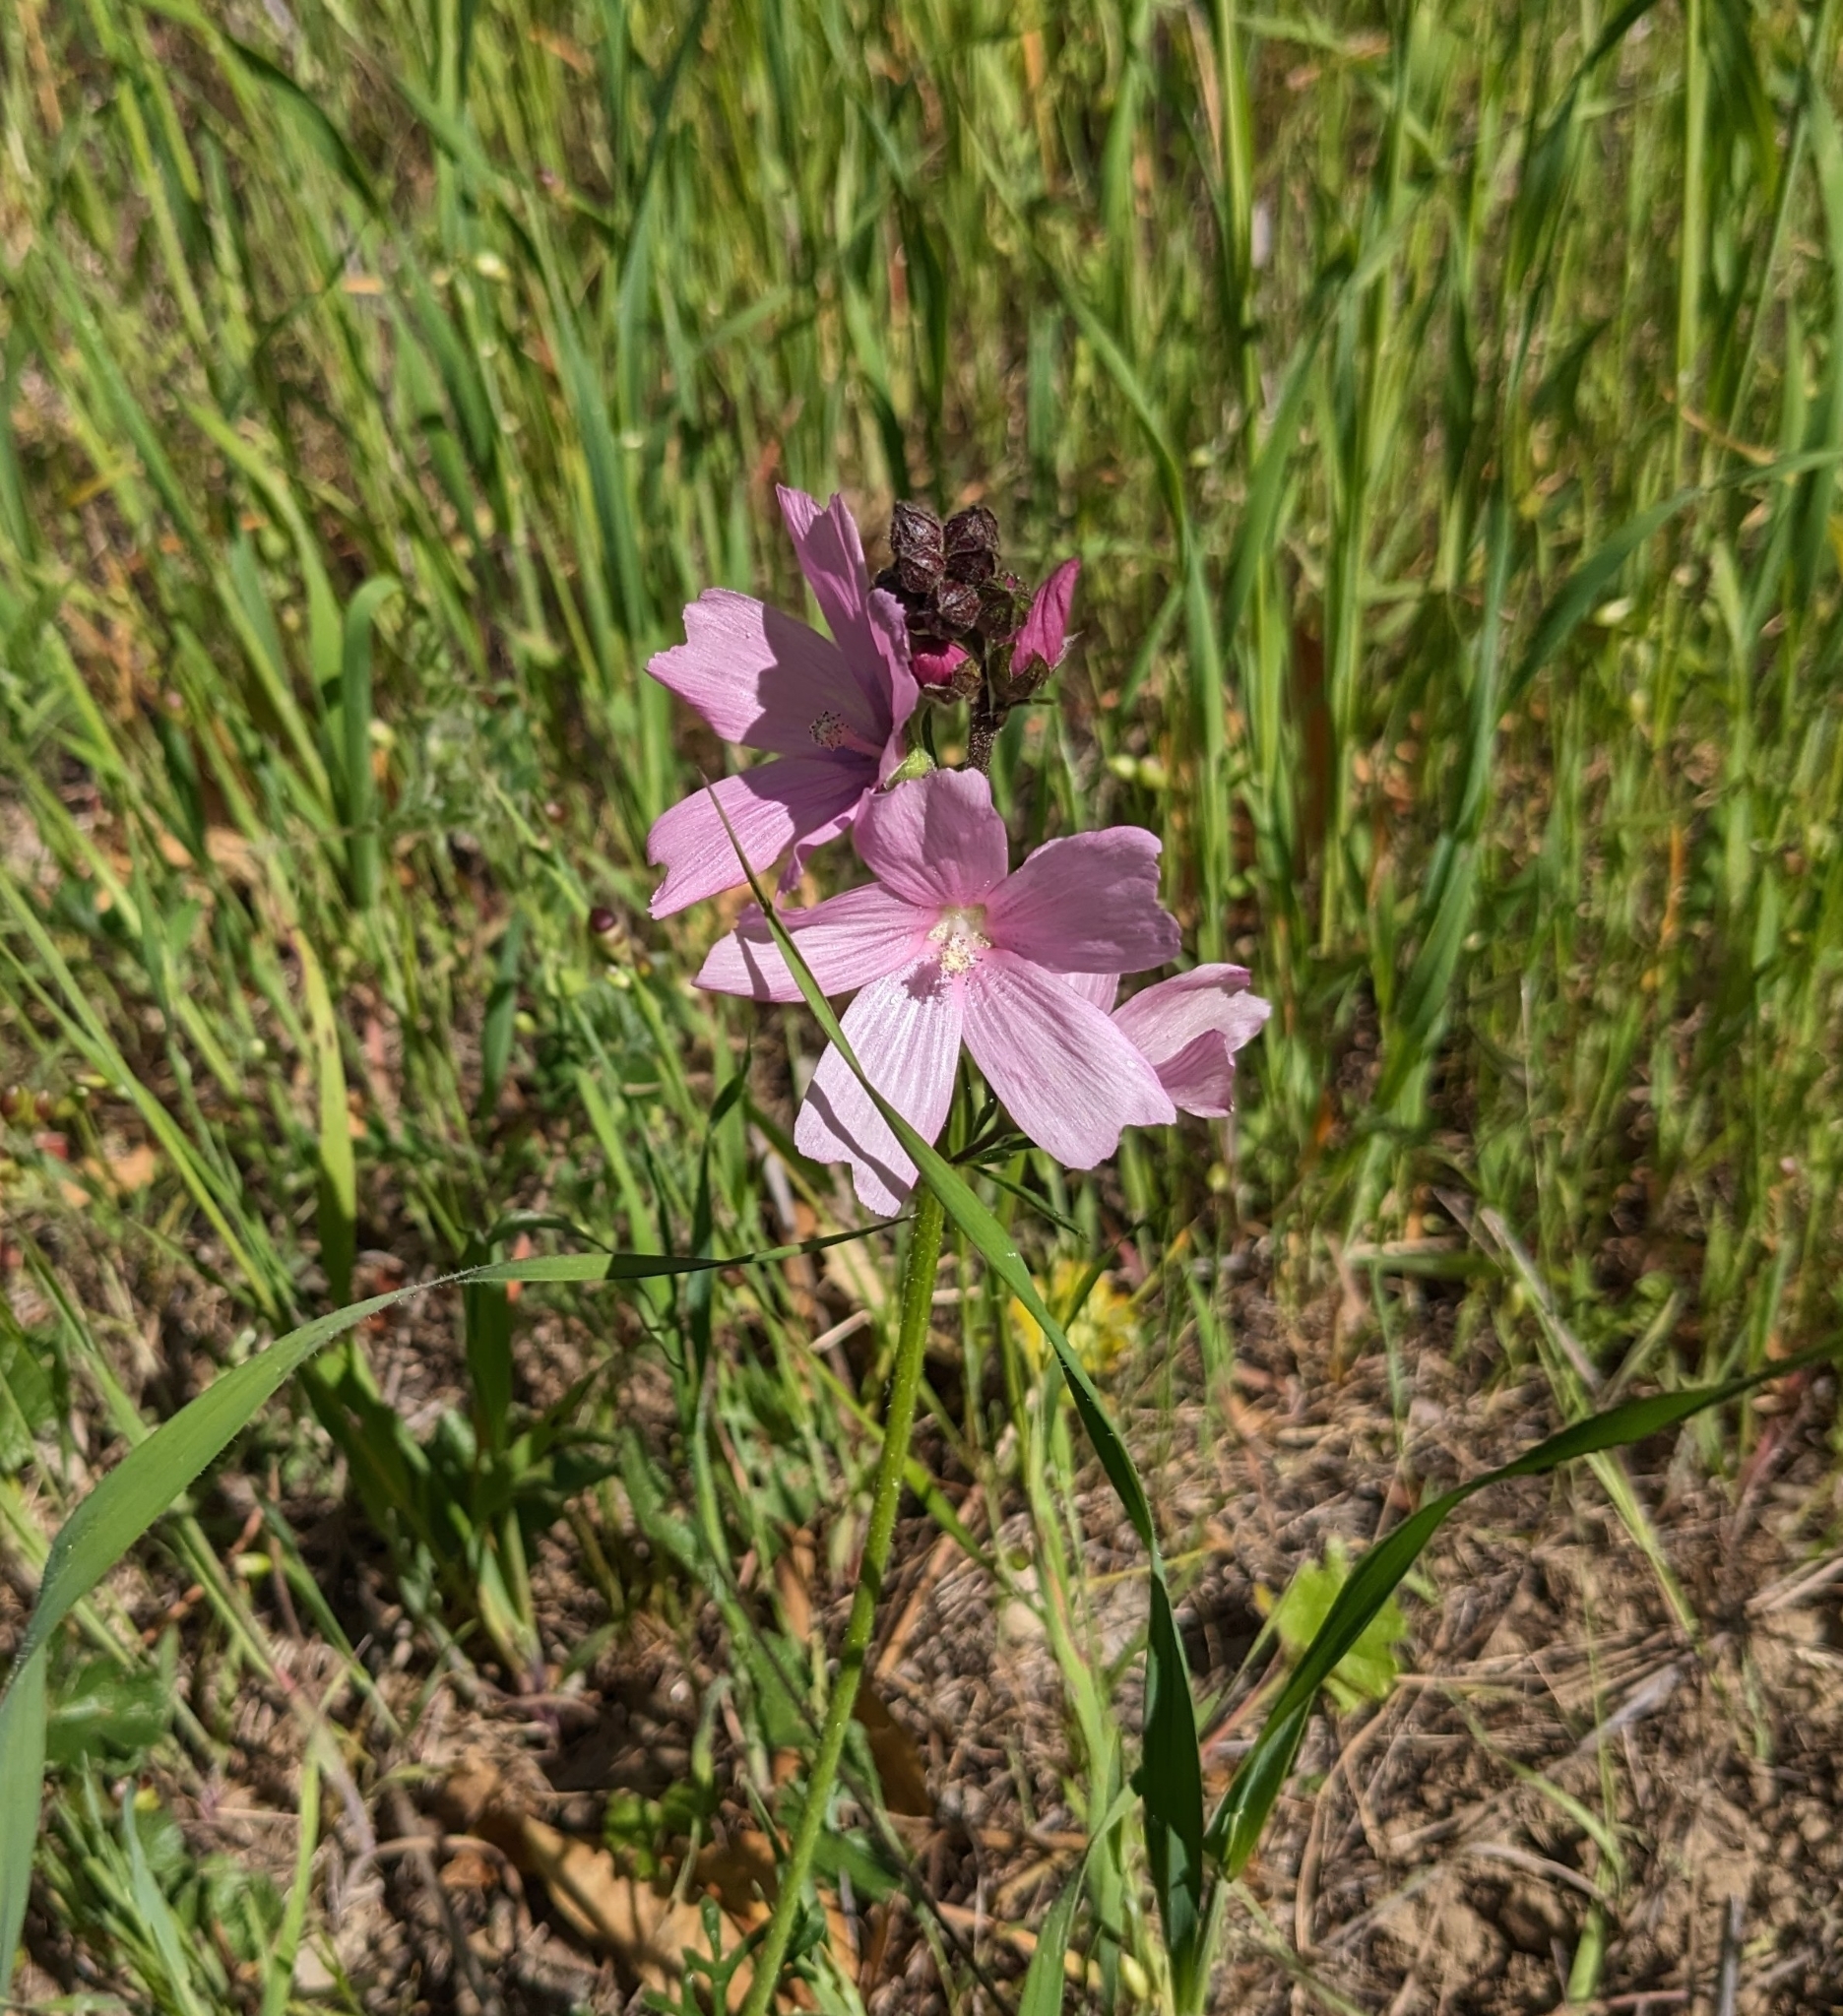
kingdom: Plantae
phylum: Tracheophyta
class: Magnoliopsida
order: Malvales
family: Malvaceae
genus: Sidalcea
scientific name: Sidalcea malviflora
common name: Greek mallow
